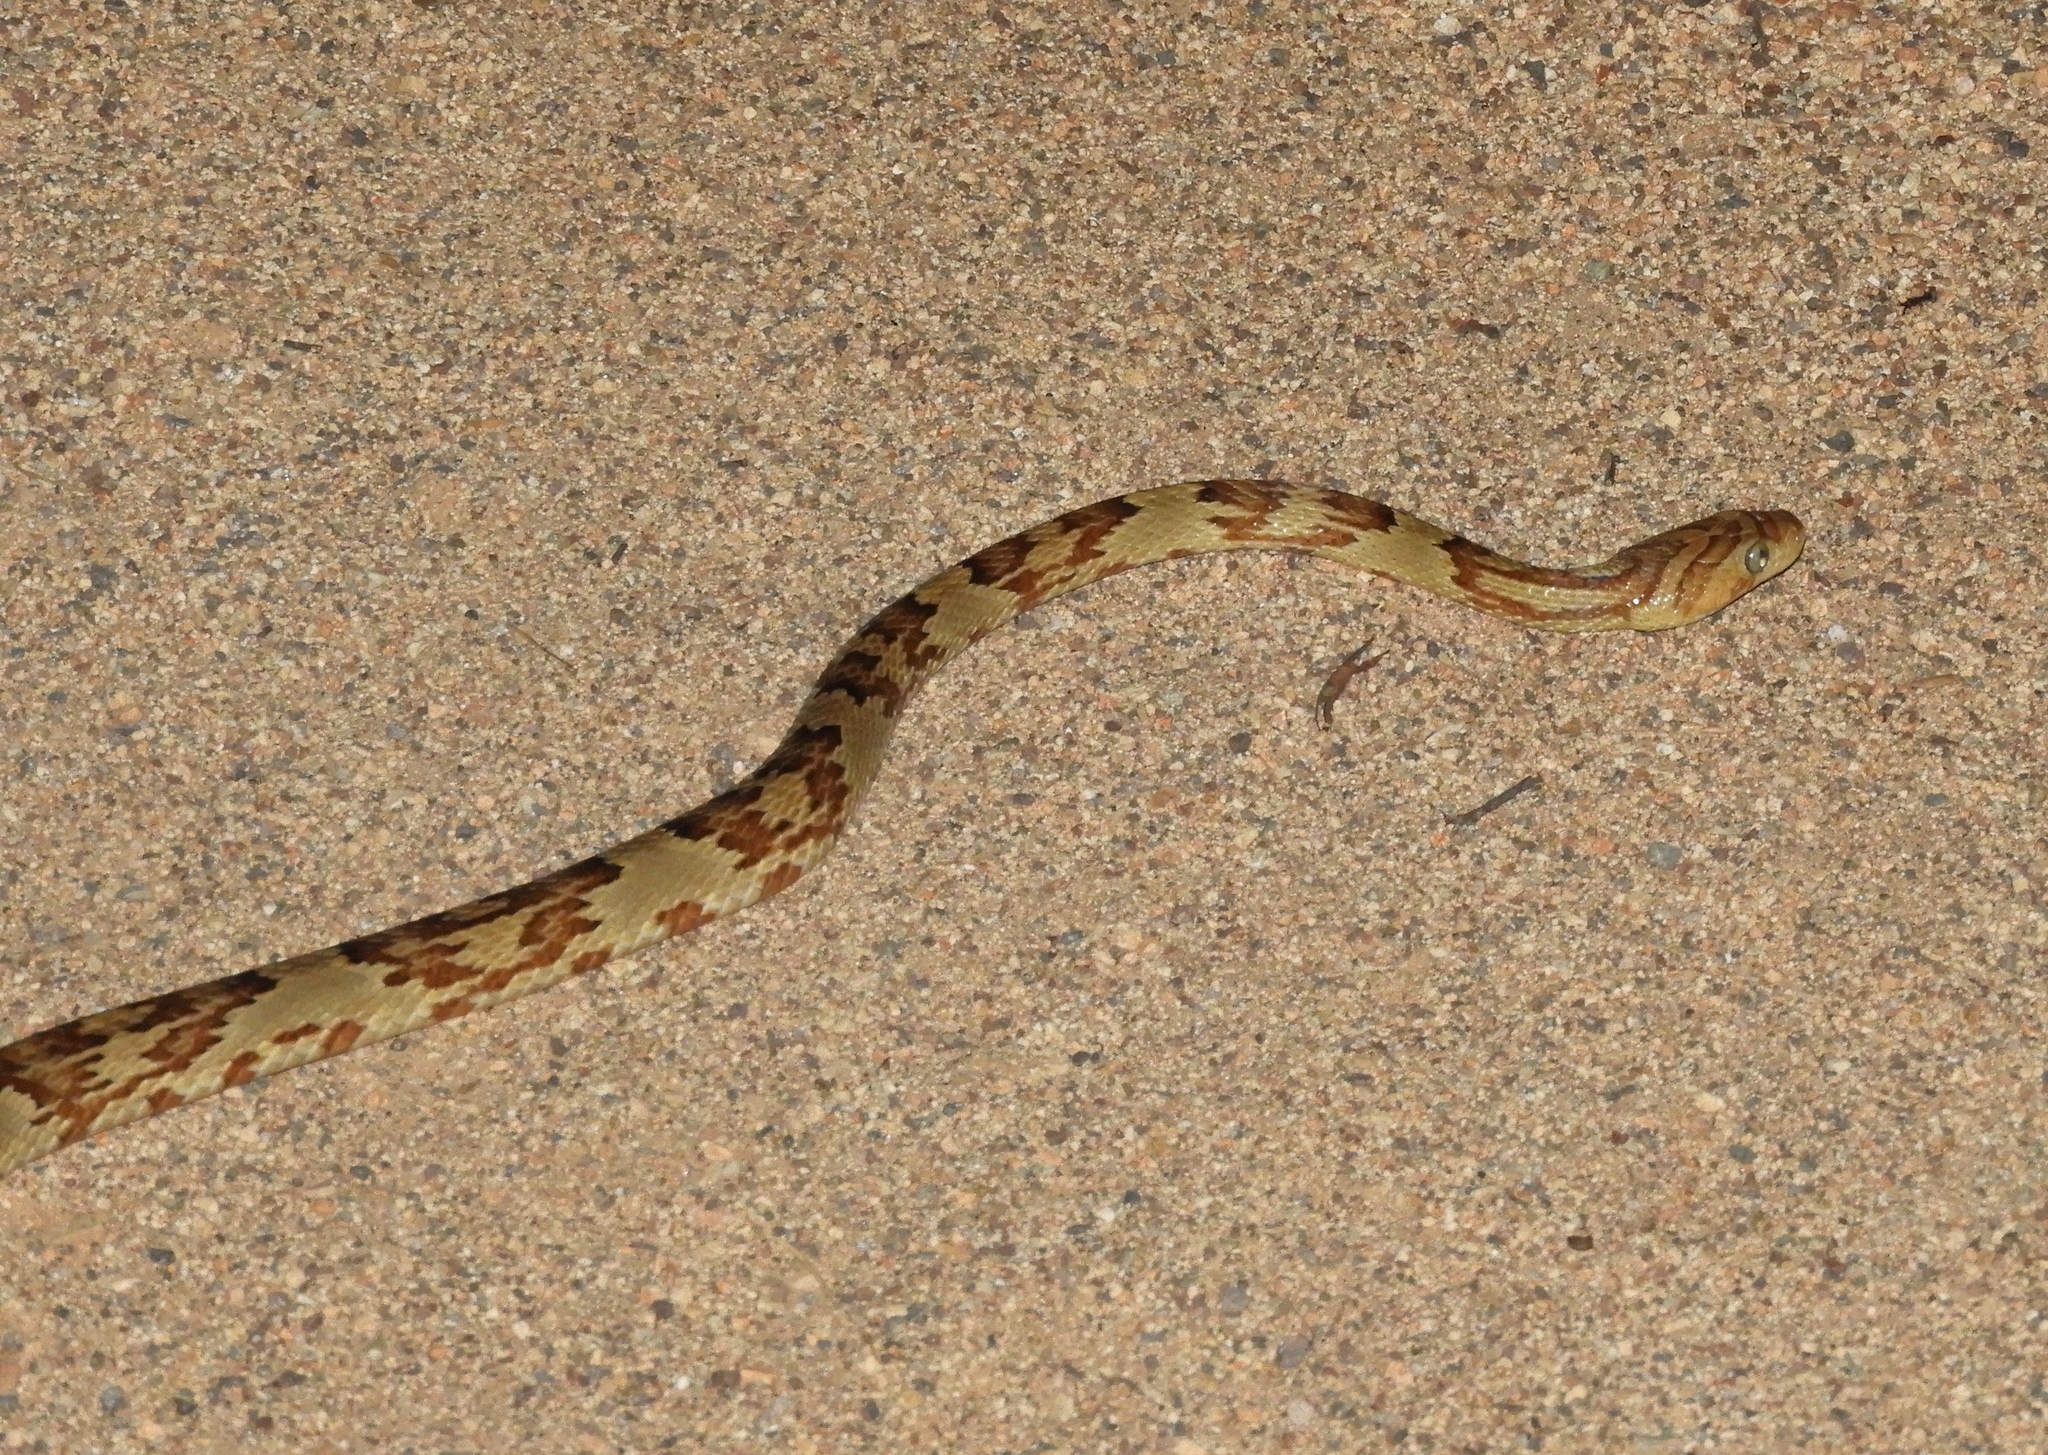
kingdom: Animalia
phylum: Chordata
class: Squamata
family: Colubridae
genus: Trimorphodon
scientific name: Trimorphodon paucimaculatus
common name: Sinaloan lyresnake
